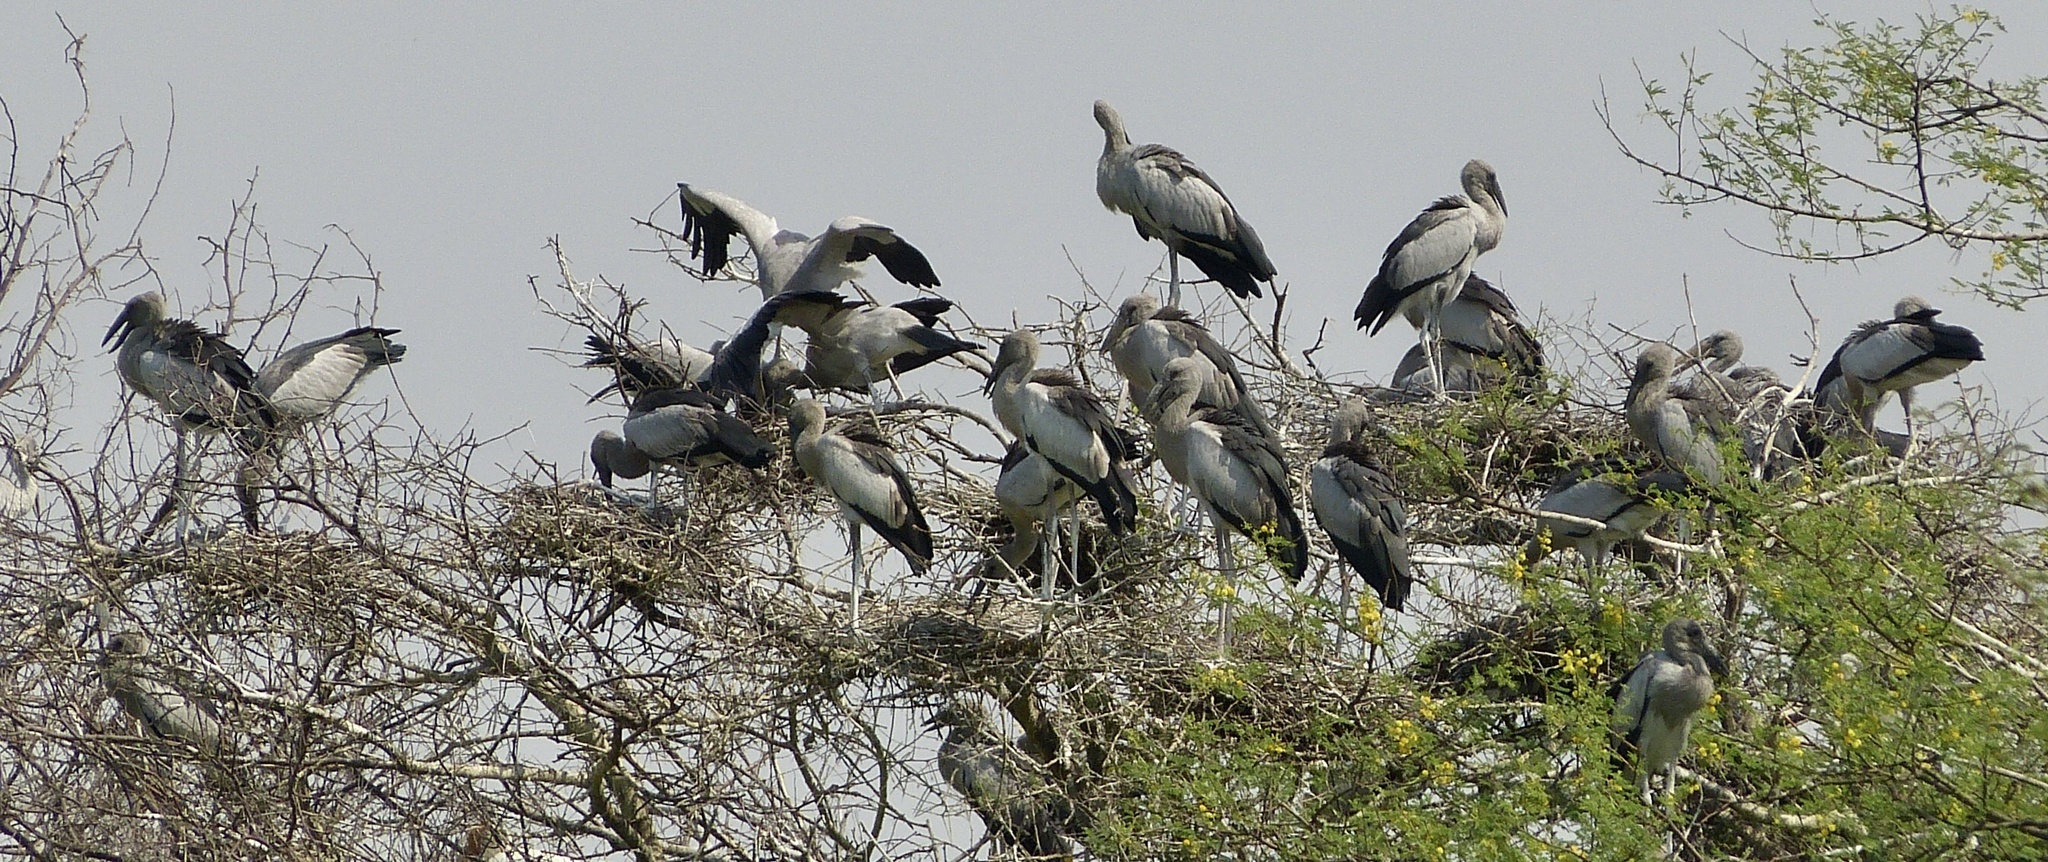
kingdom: Animalia
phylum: Chordata
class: Aves
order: Ciconiiformes
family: Ciconiidae
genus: Anastomus
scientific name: Anastomus oscitans
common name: Asian openbill
